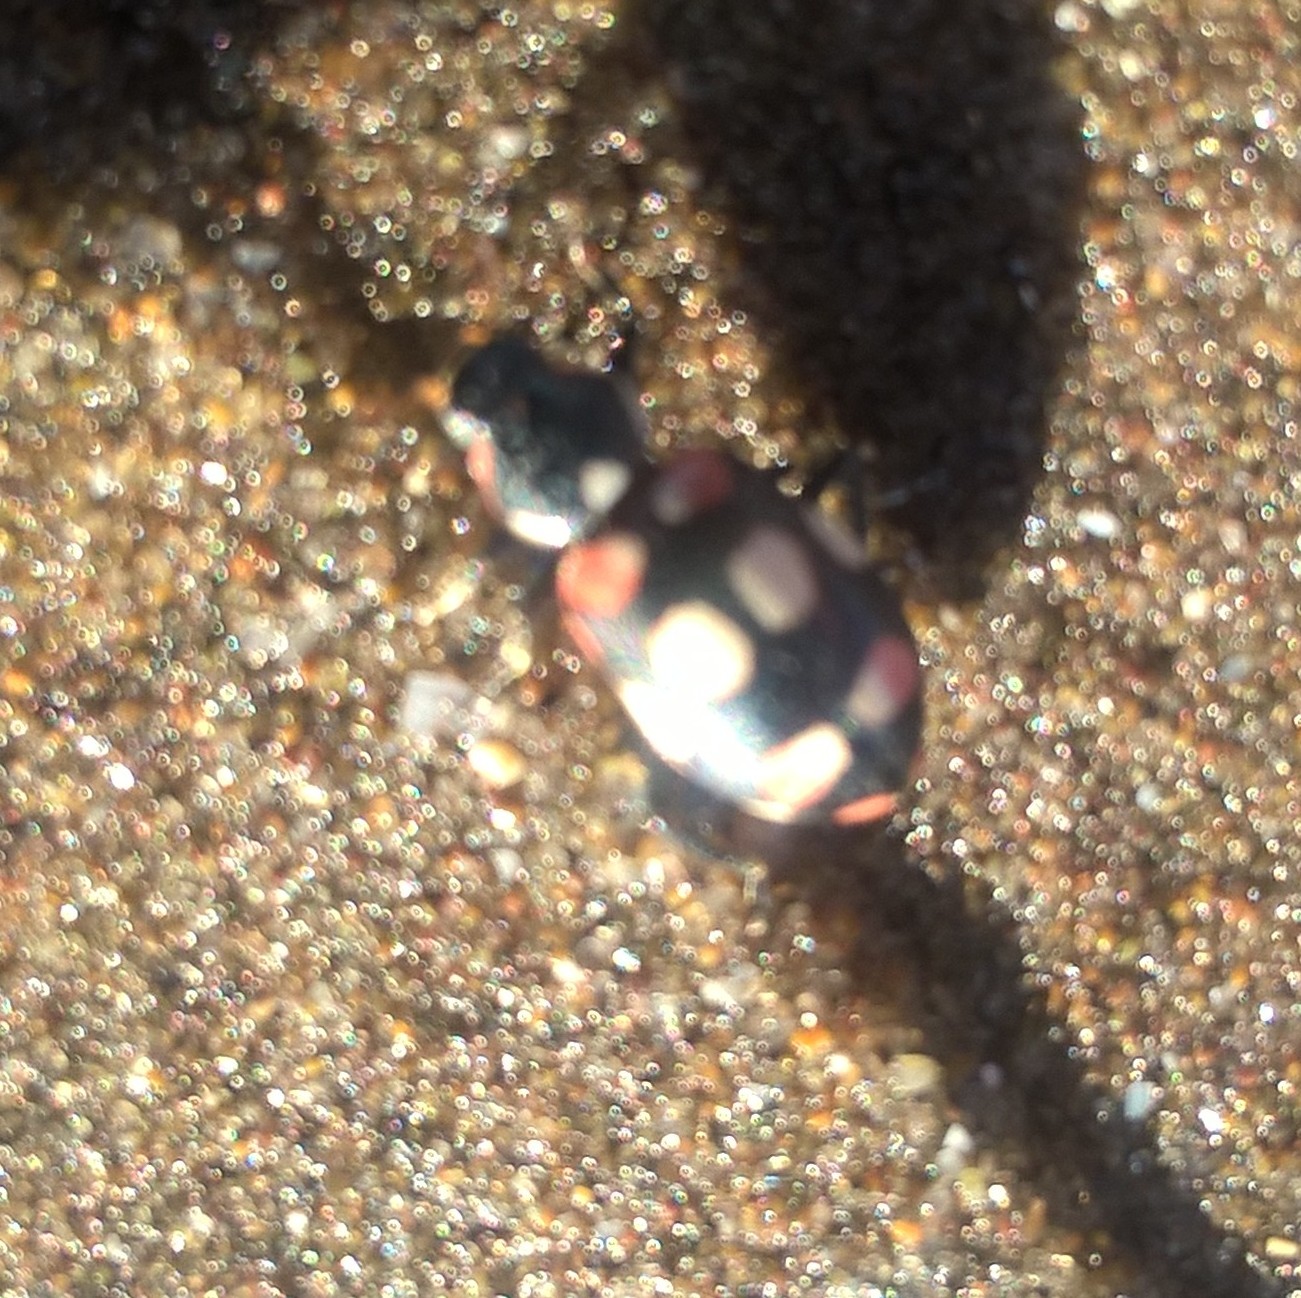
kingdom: Animalia
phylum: Arthropoda
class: Insecta
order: Coleoptera
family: Coccinellidae
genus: Eriopis
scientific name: Eriopis connexa
